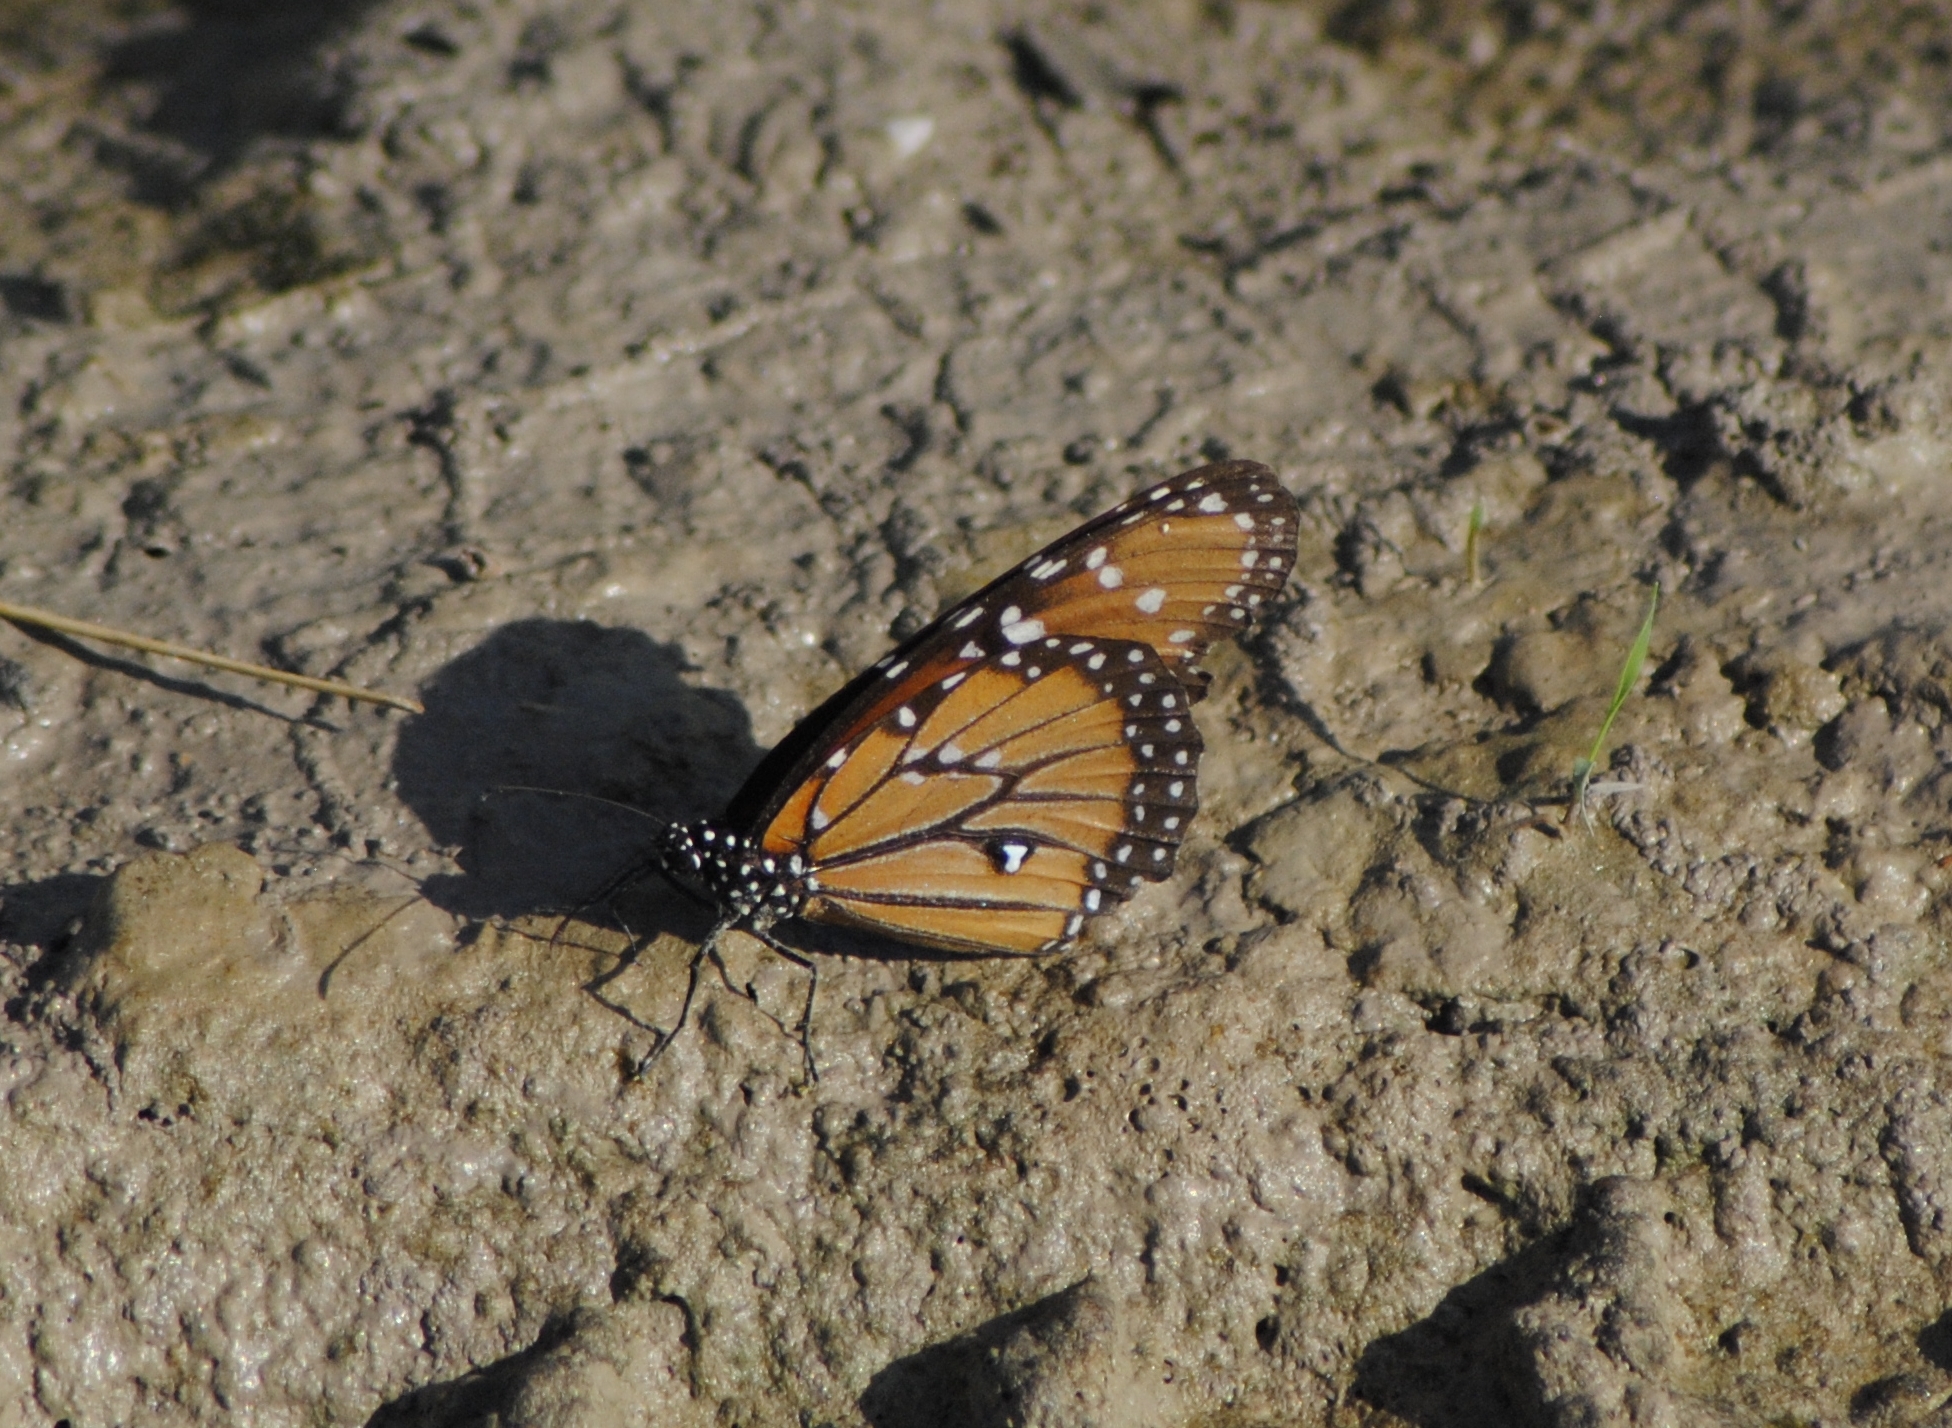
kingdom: Animalia
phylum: Arthropoda
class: Insecta
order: Lepidoptera
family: Nymphalidae
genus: Danaus
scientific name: Danaus gilippus
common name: Queen
